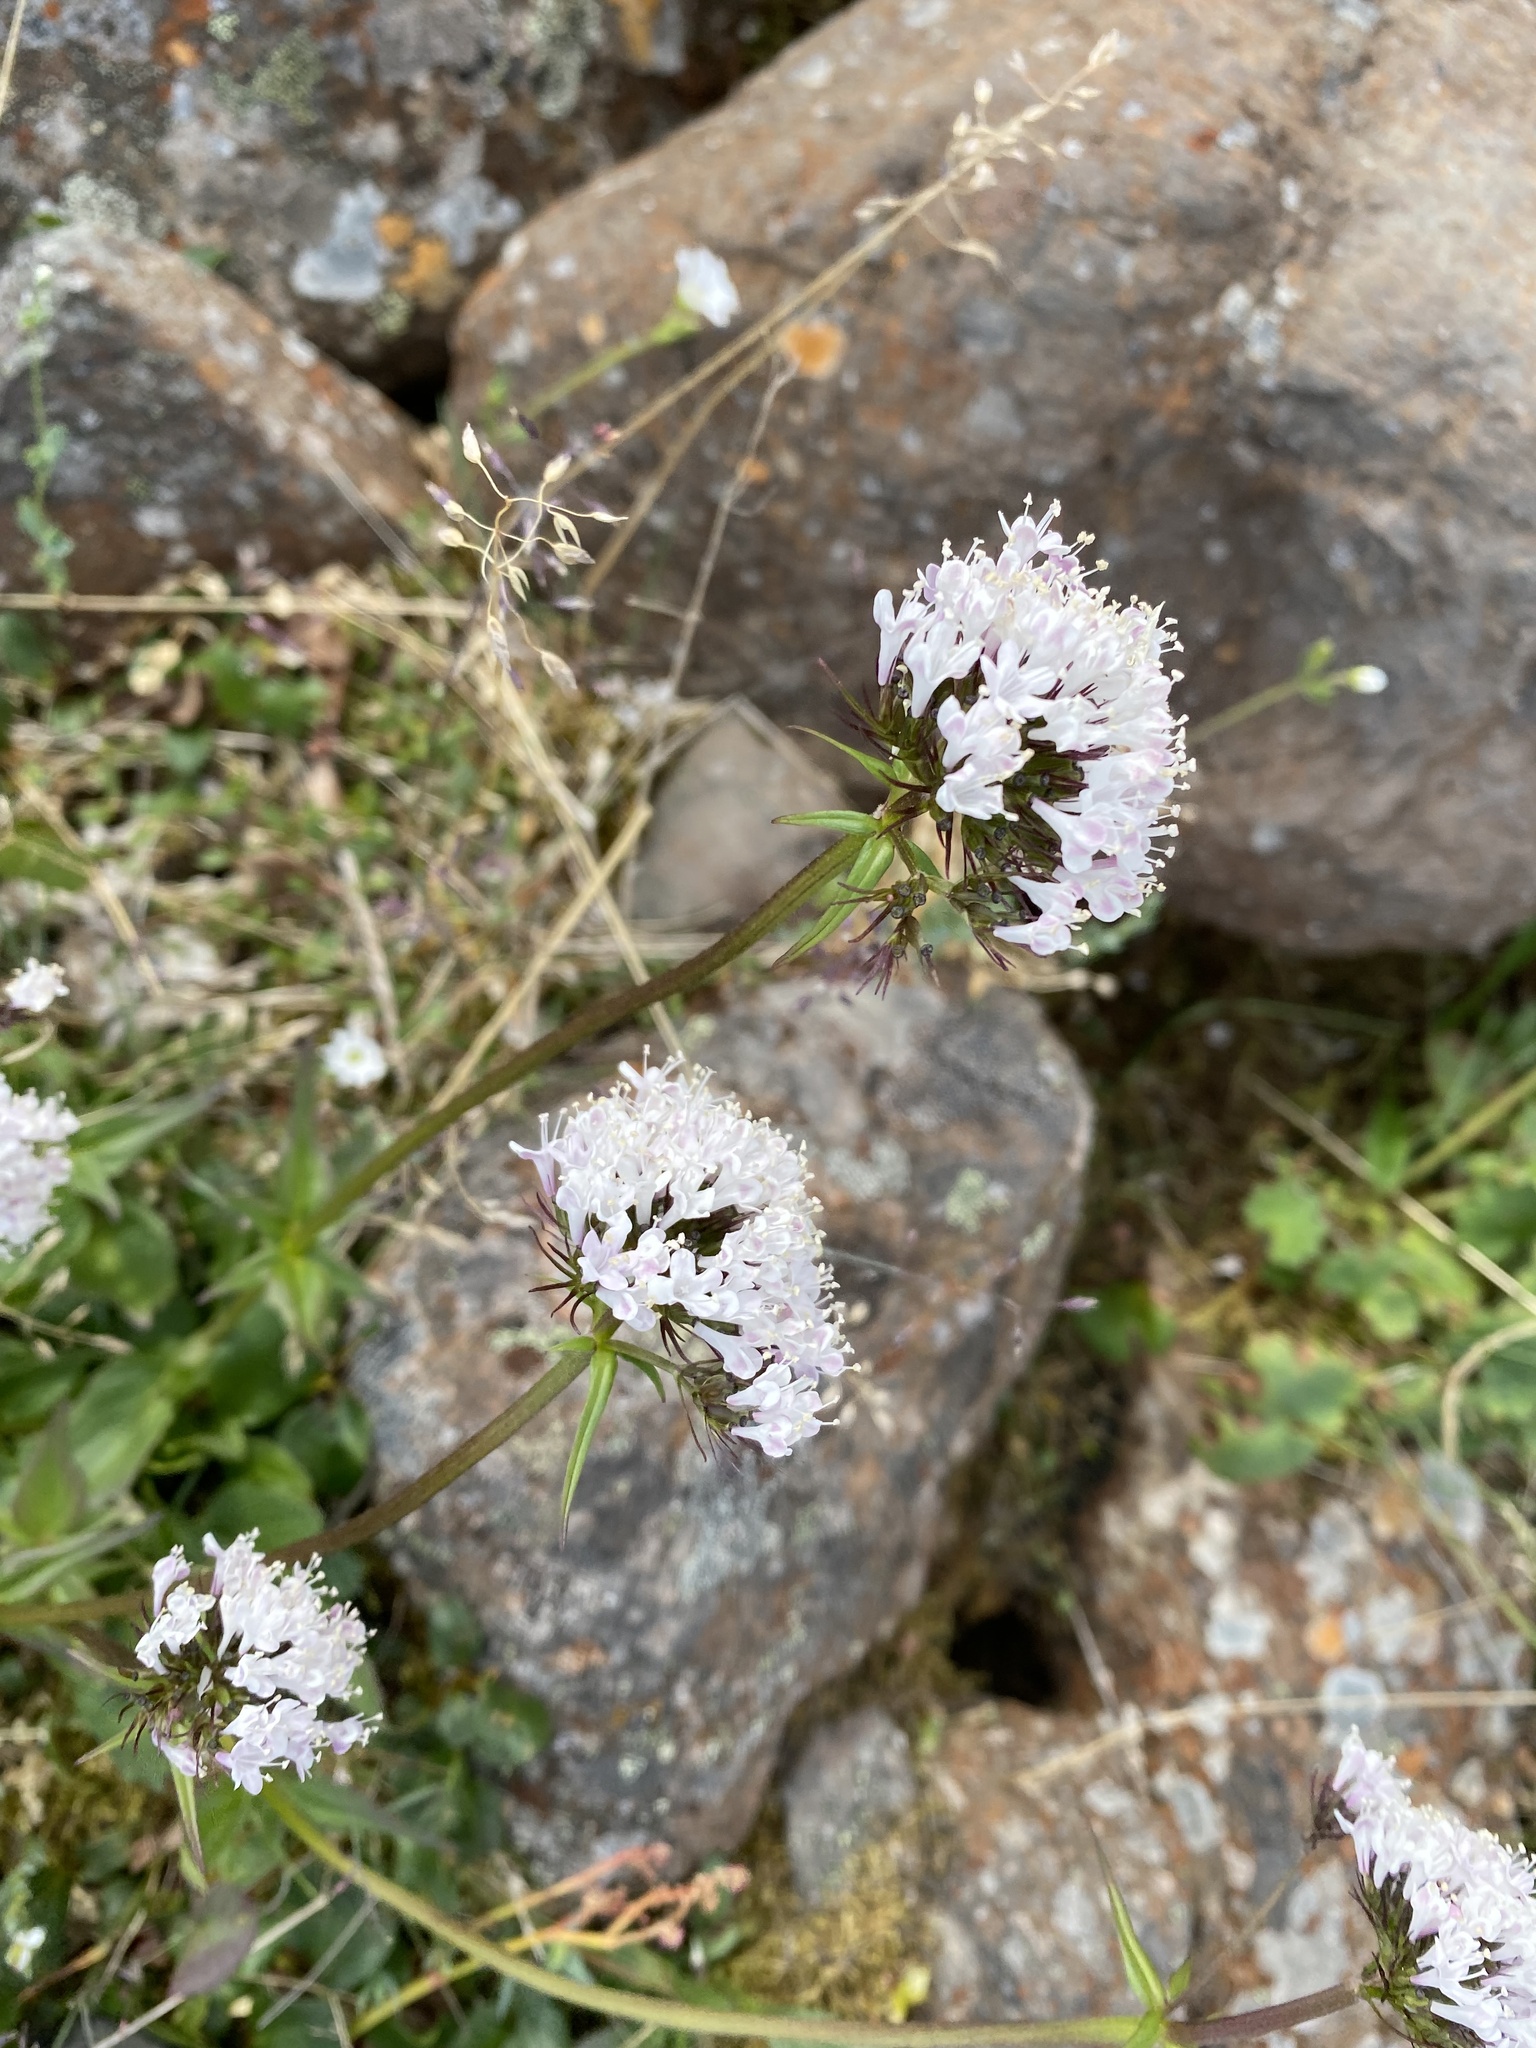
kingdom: Plantae
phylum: Tracheophyta
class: Magnoliopsida
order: Dipsacales
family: Caprifoliaceae
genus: Valeriana
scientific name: Valeriana capitata
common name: Capitate valerian
